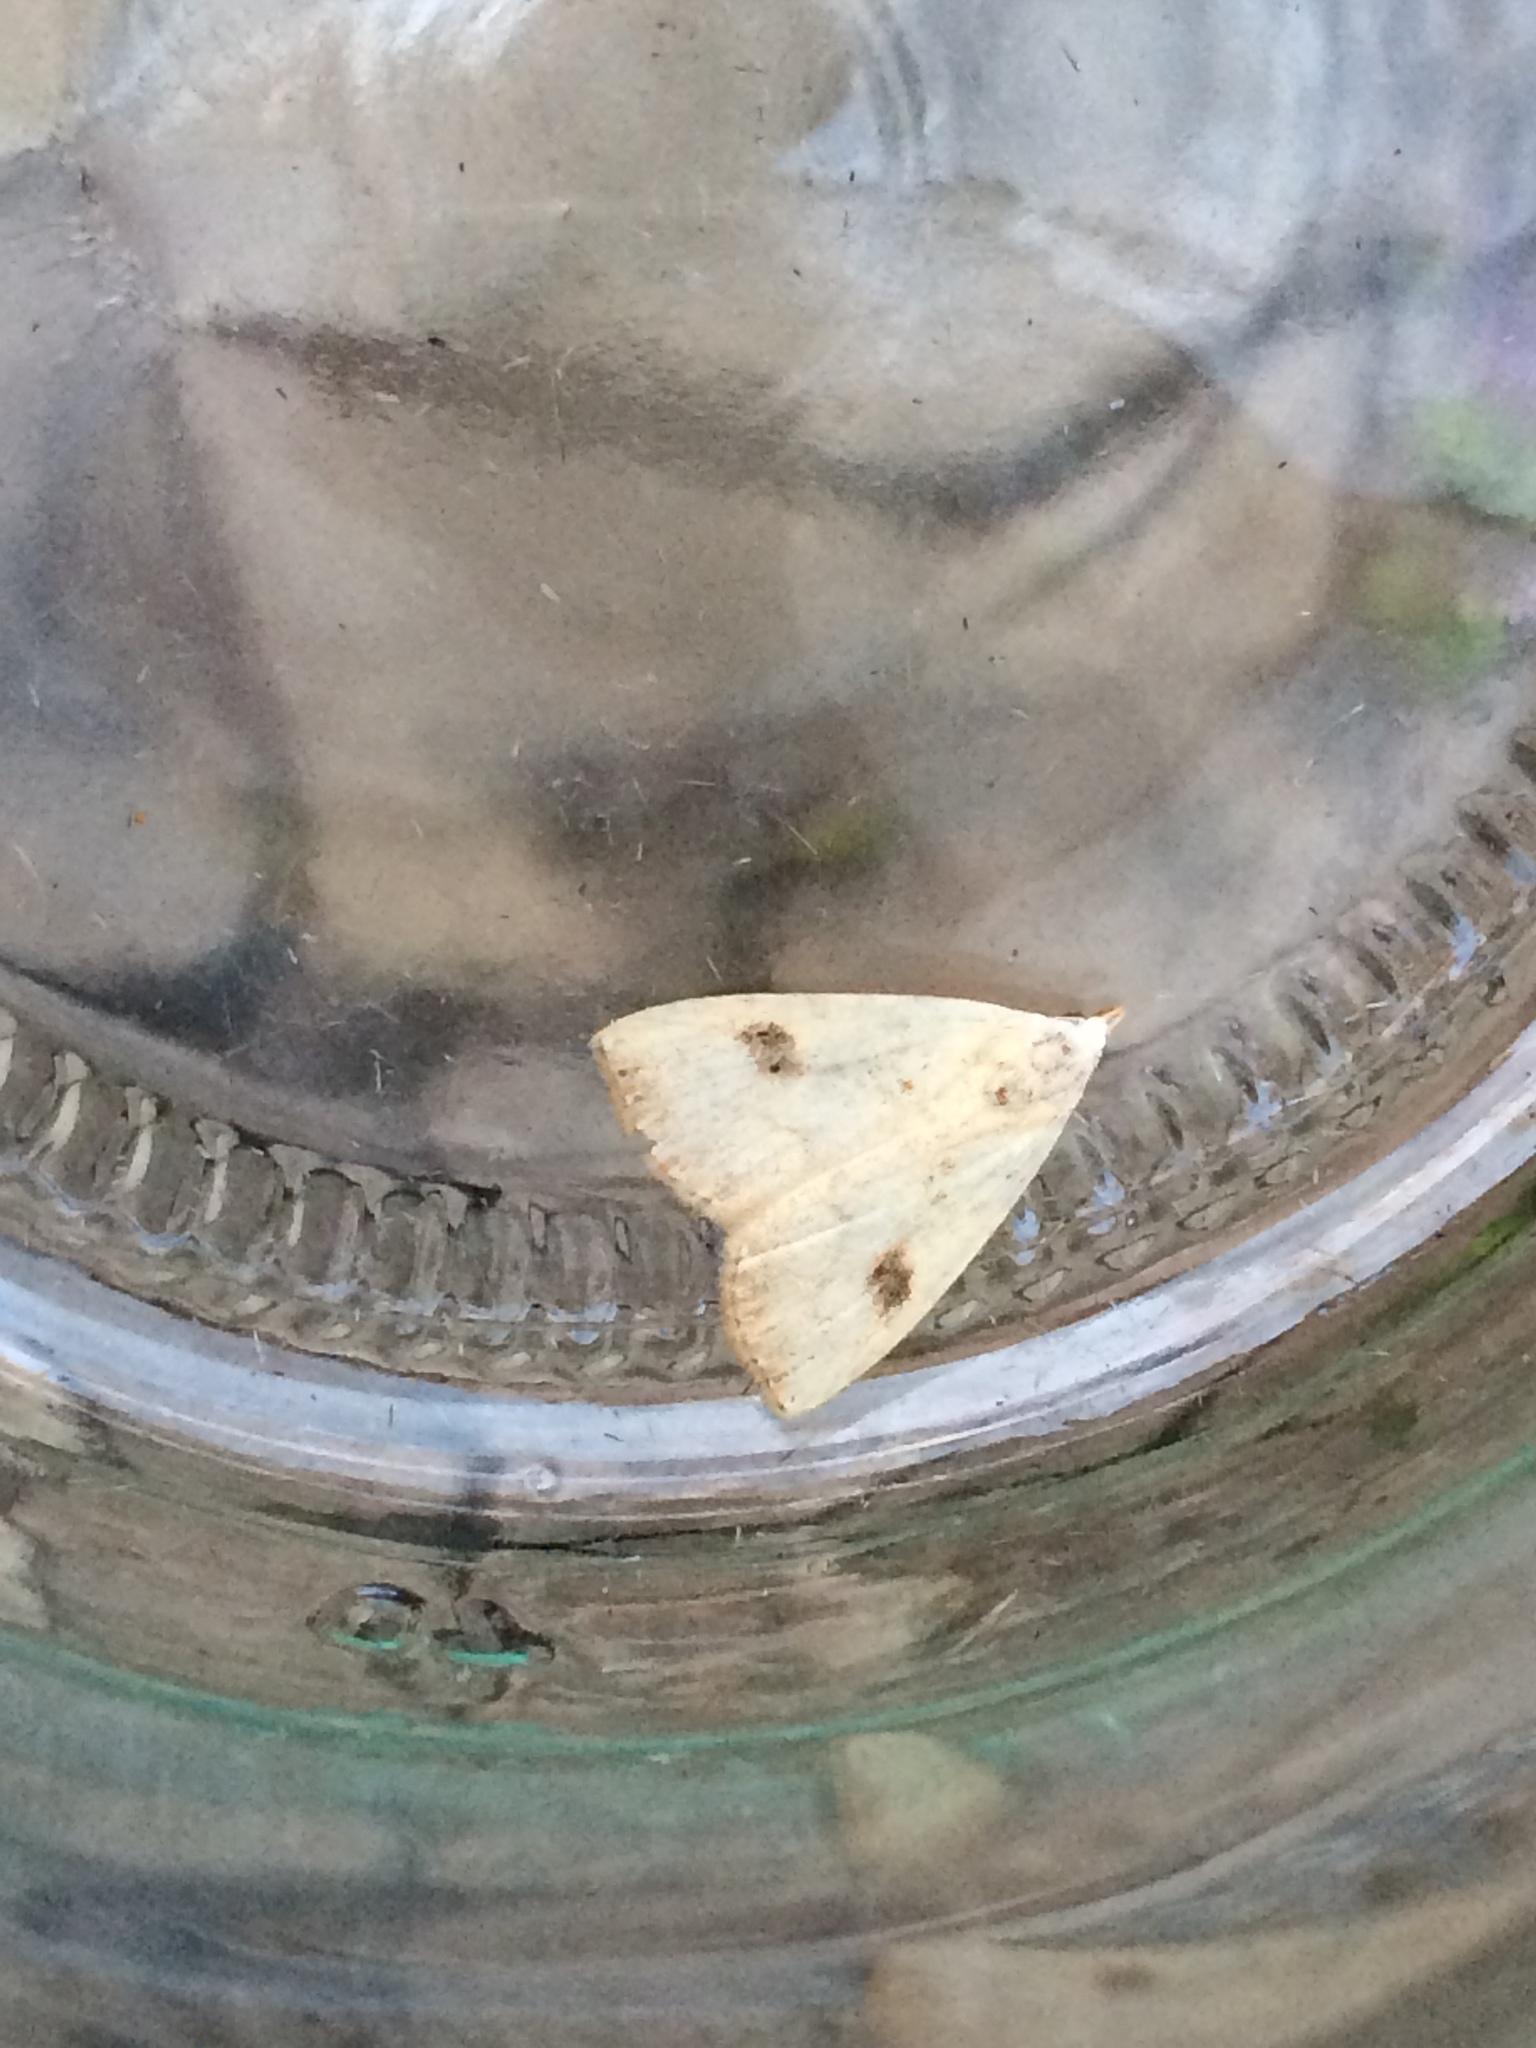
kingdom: Animalia
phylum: Arthropoda
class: Insecta
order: Lepidoptera
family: Erebidae
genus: Rivula
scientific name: Rivula sericealis
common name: Straw dot
